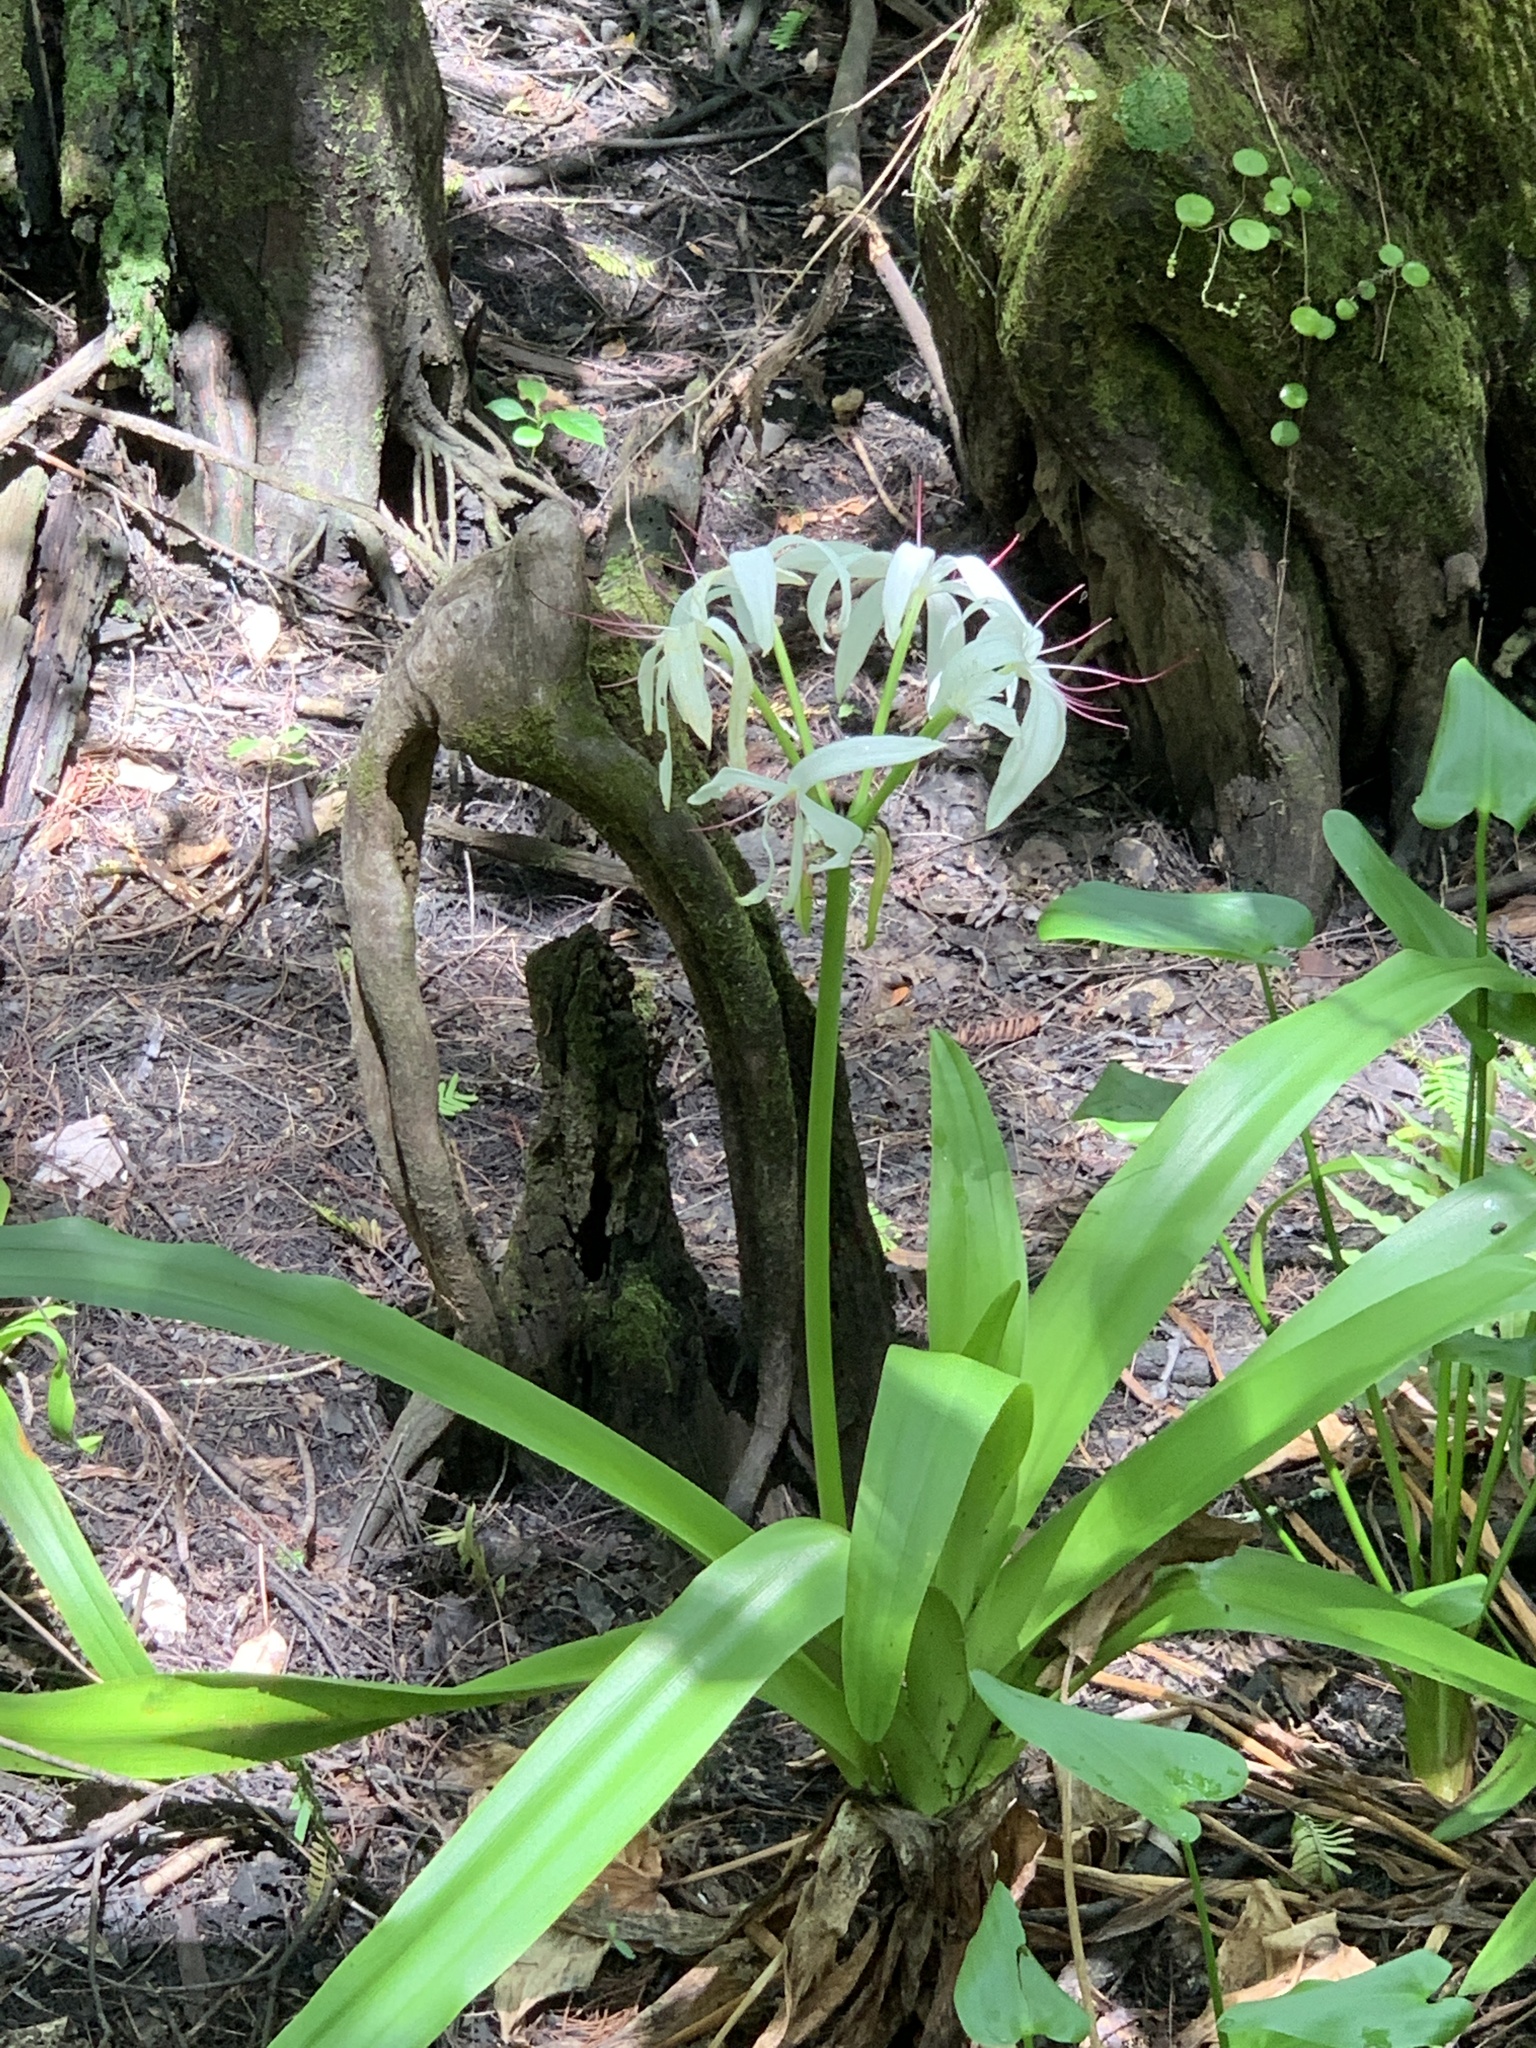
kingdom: Plantae
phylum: Tracheophyta
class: Liliopsida
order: Asparagales
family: Amaryllidaceae
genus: Crinum
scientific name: Crinum americanum
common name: Florida swamp-lily
